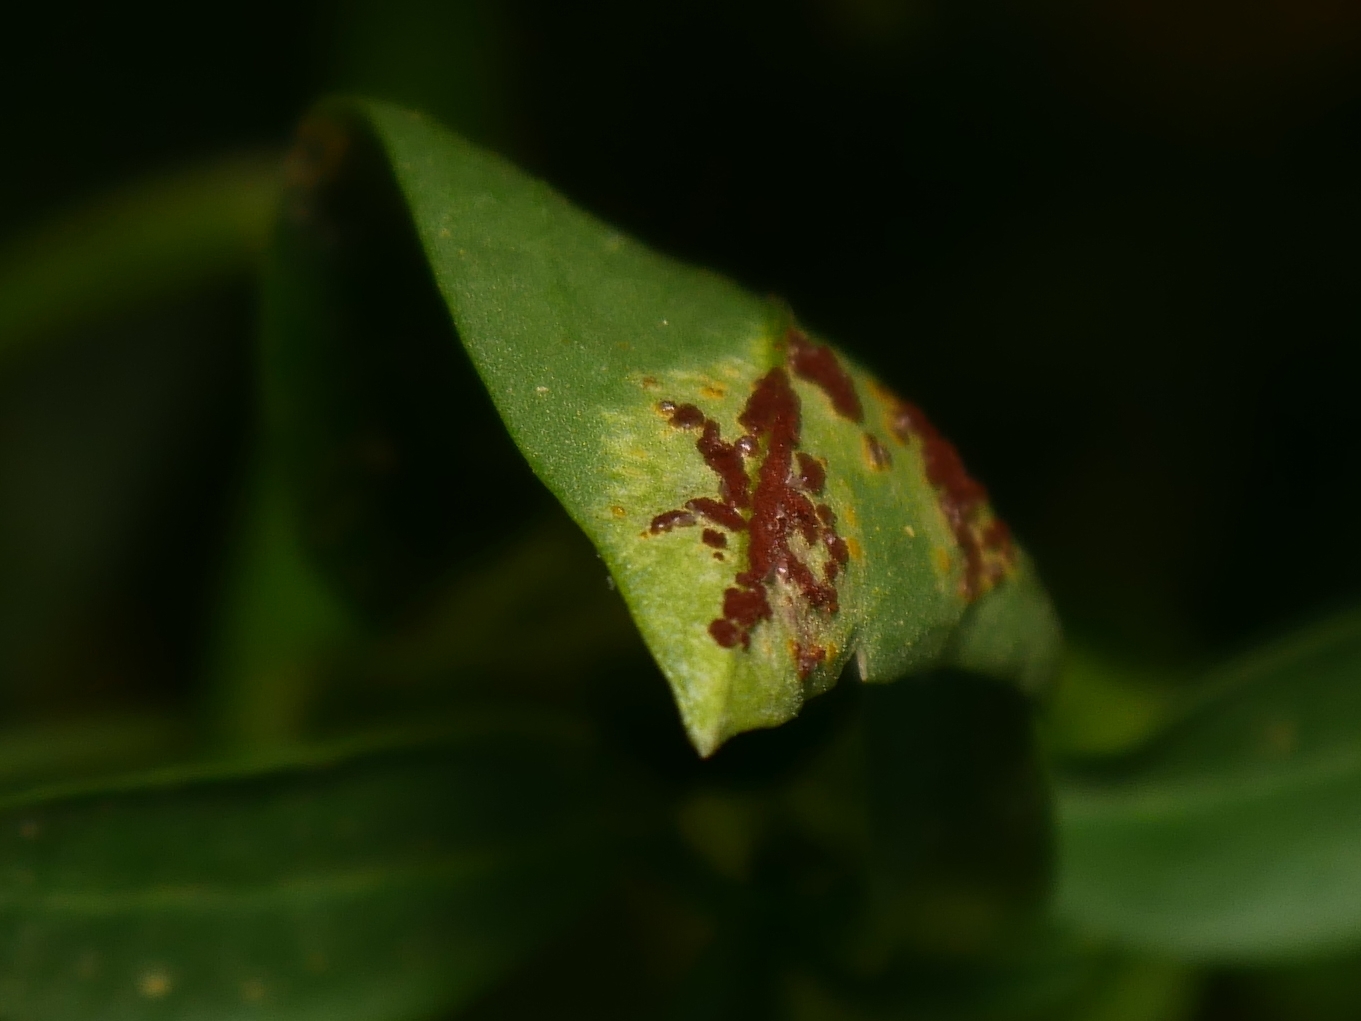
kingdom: Fungi
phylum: Basidiomycota
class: Pucciniomycetes
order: Pucciniales
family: Pucciniaceae
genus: Puccinia
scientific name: Puccinia antirrhini
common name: Antirrhinum rust
